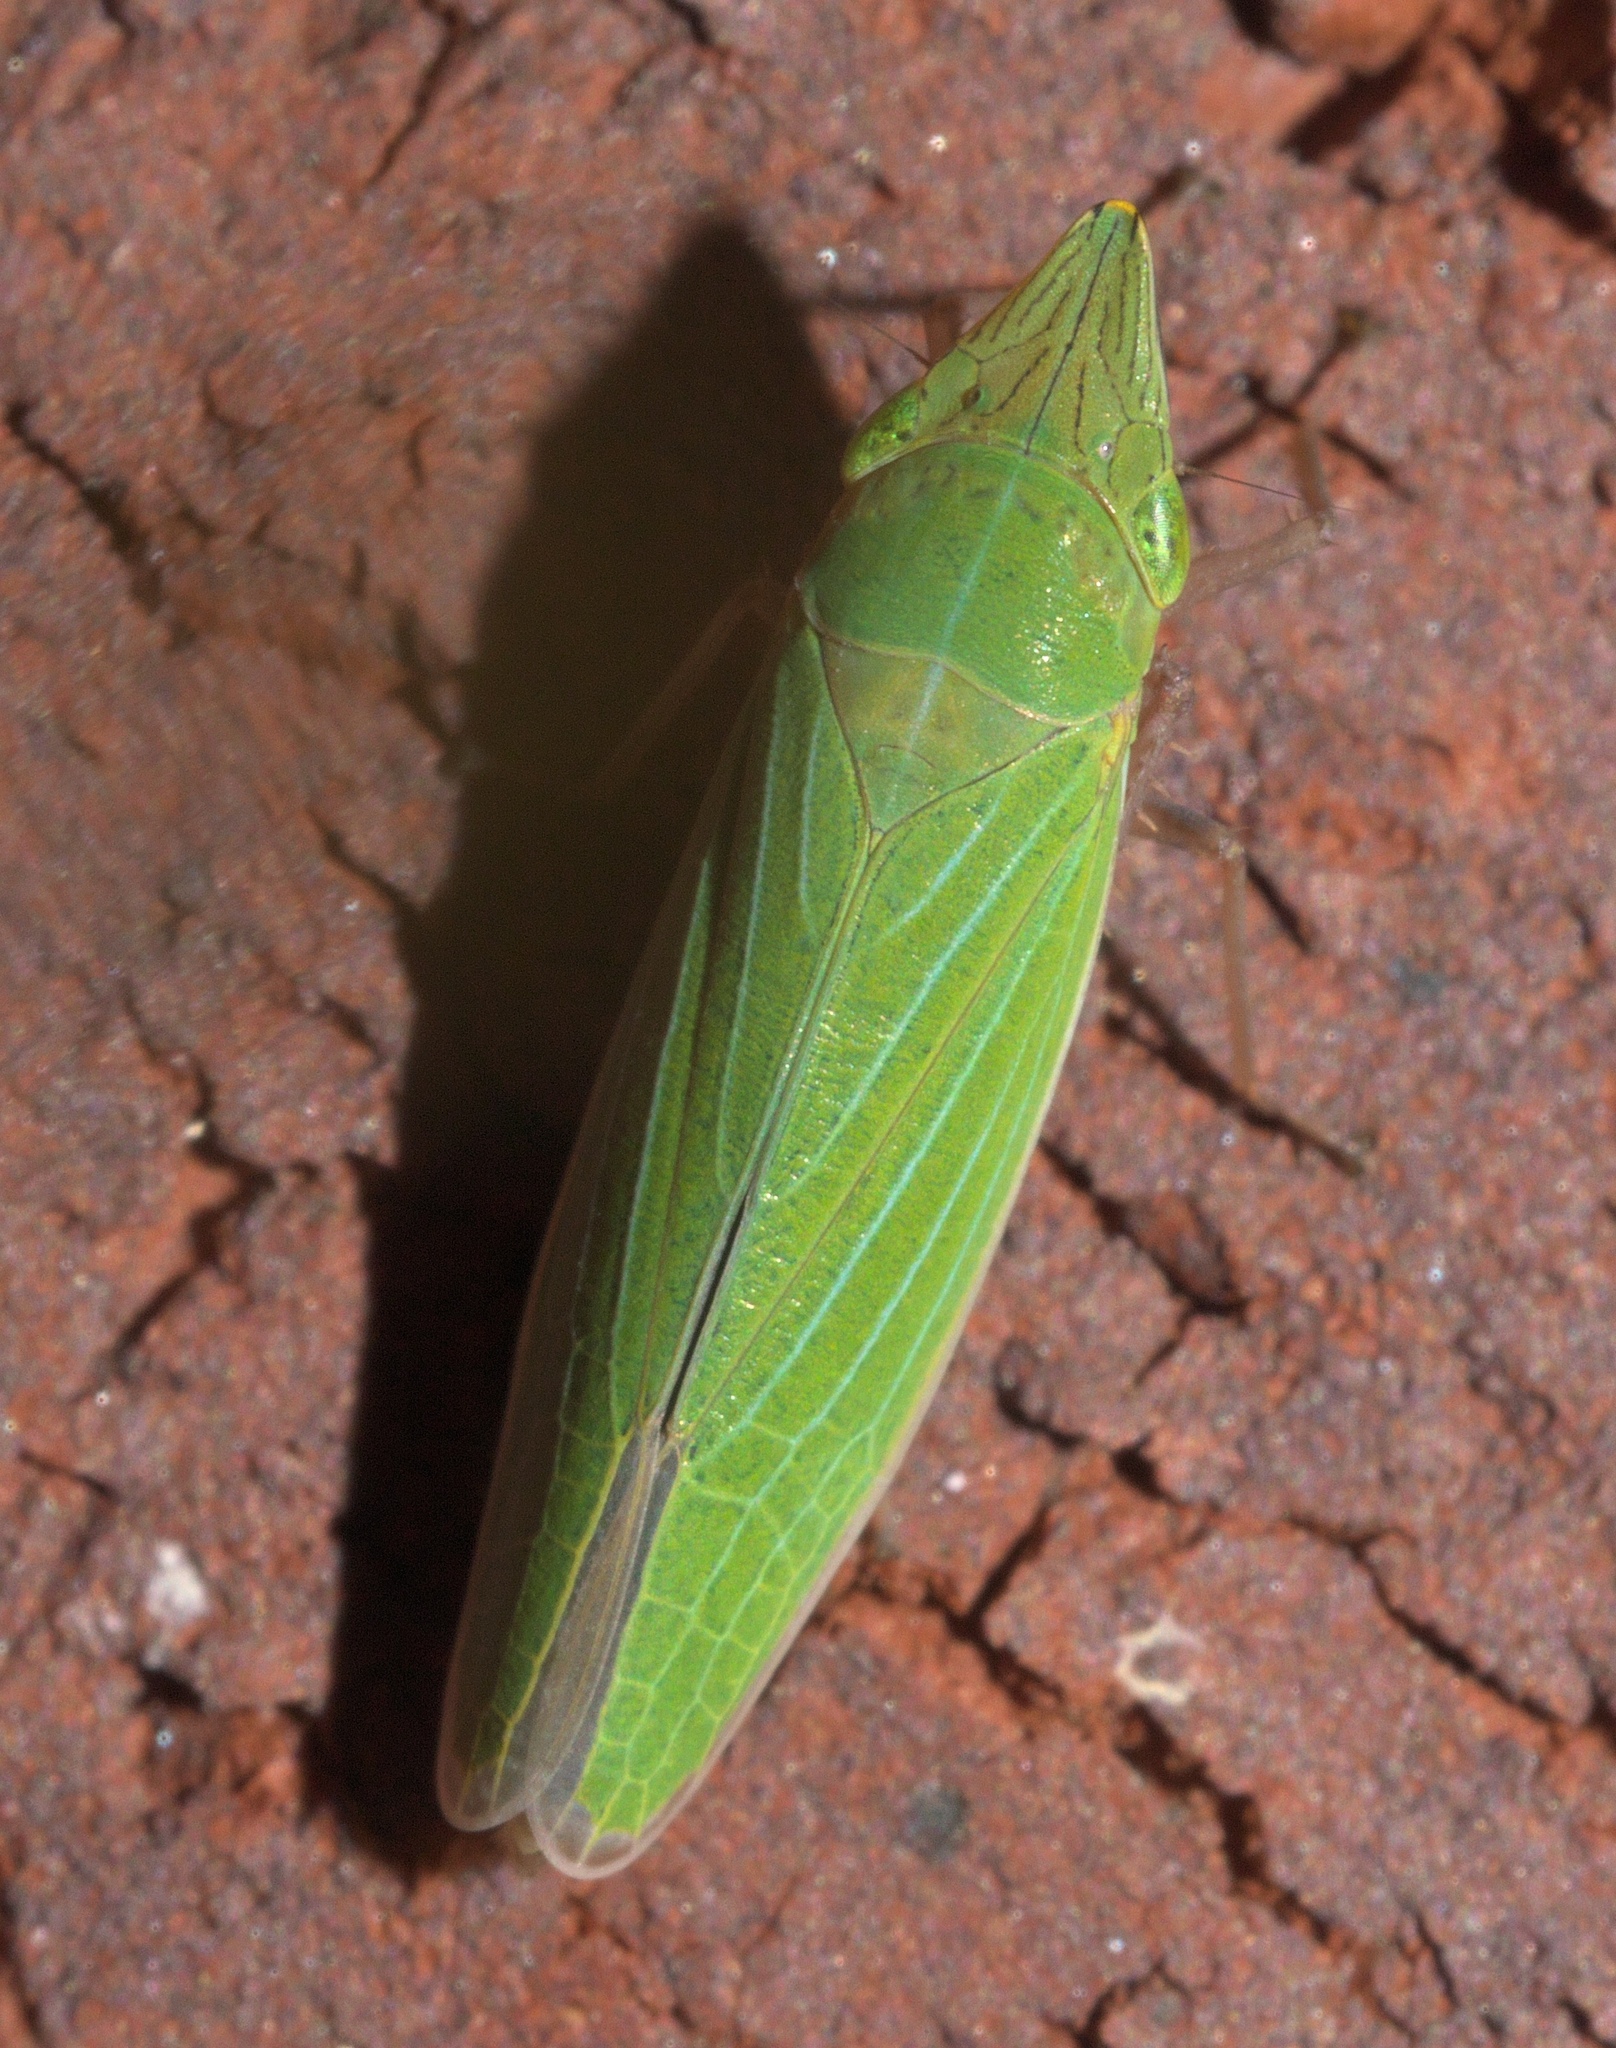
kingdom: Animalia
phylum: Arthropoda
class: Insecta
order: Hemiptera
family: Cicadellidae
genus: Draeculacephala
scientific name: Draeculacephala robinsoni
